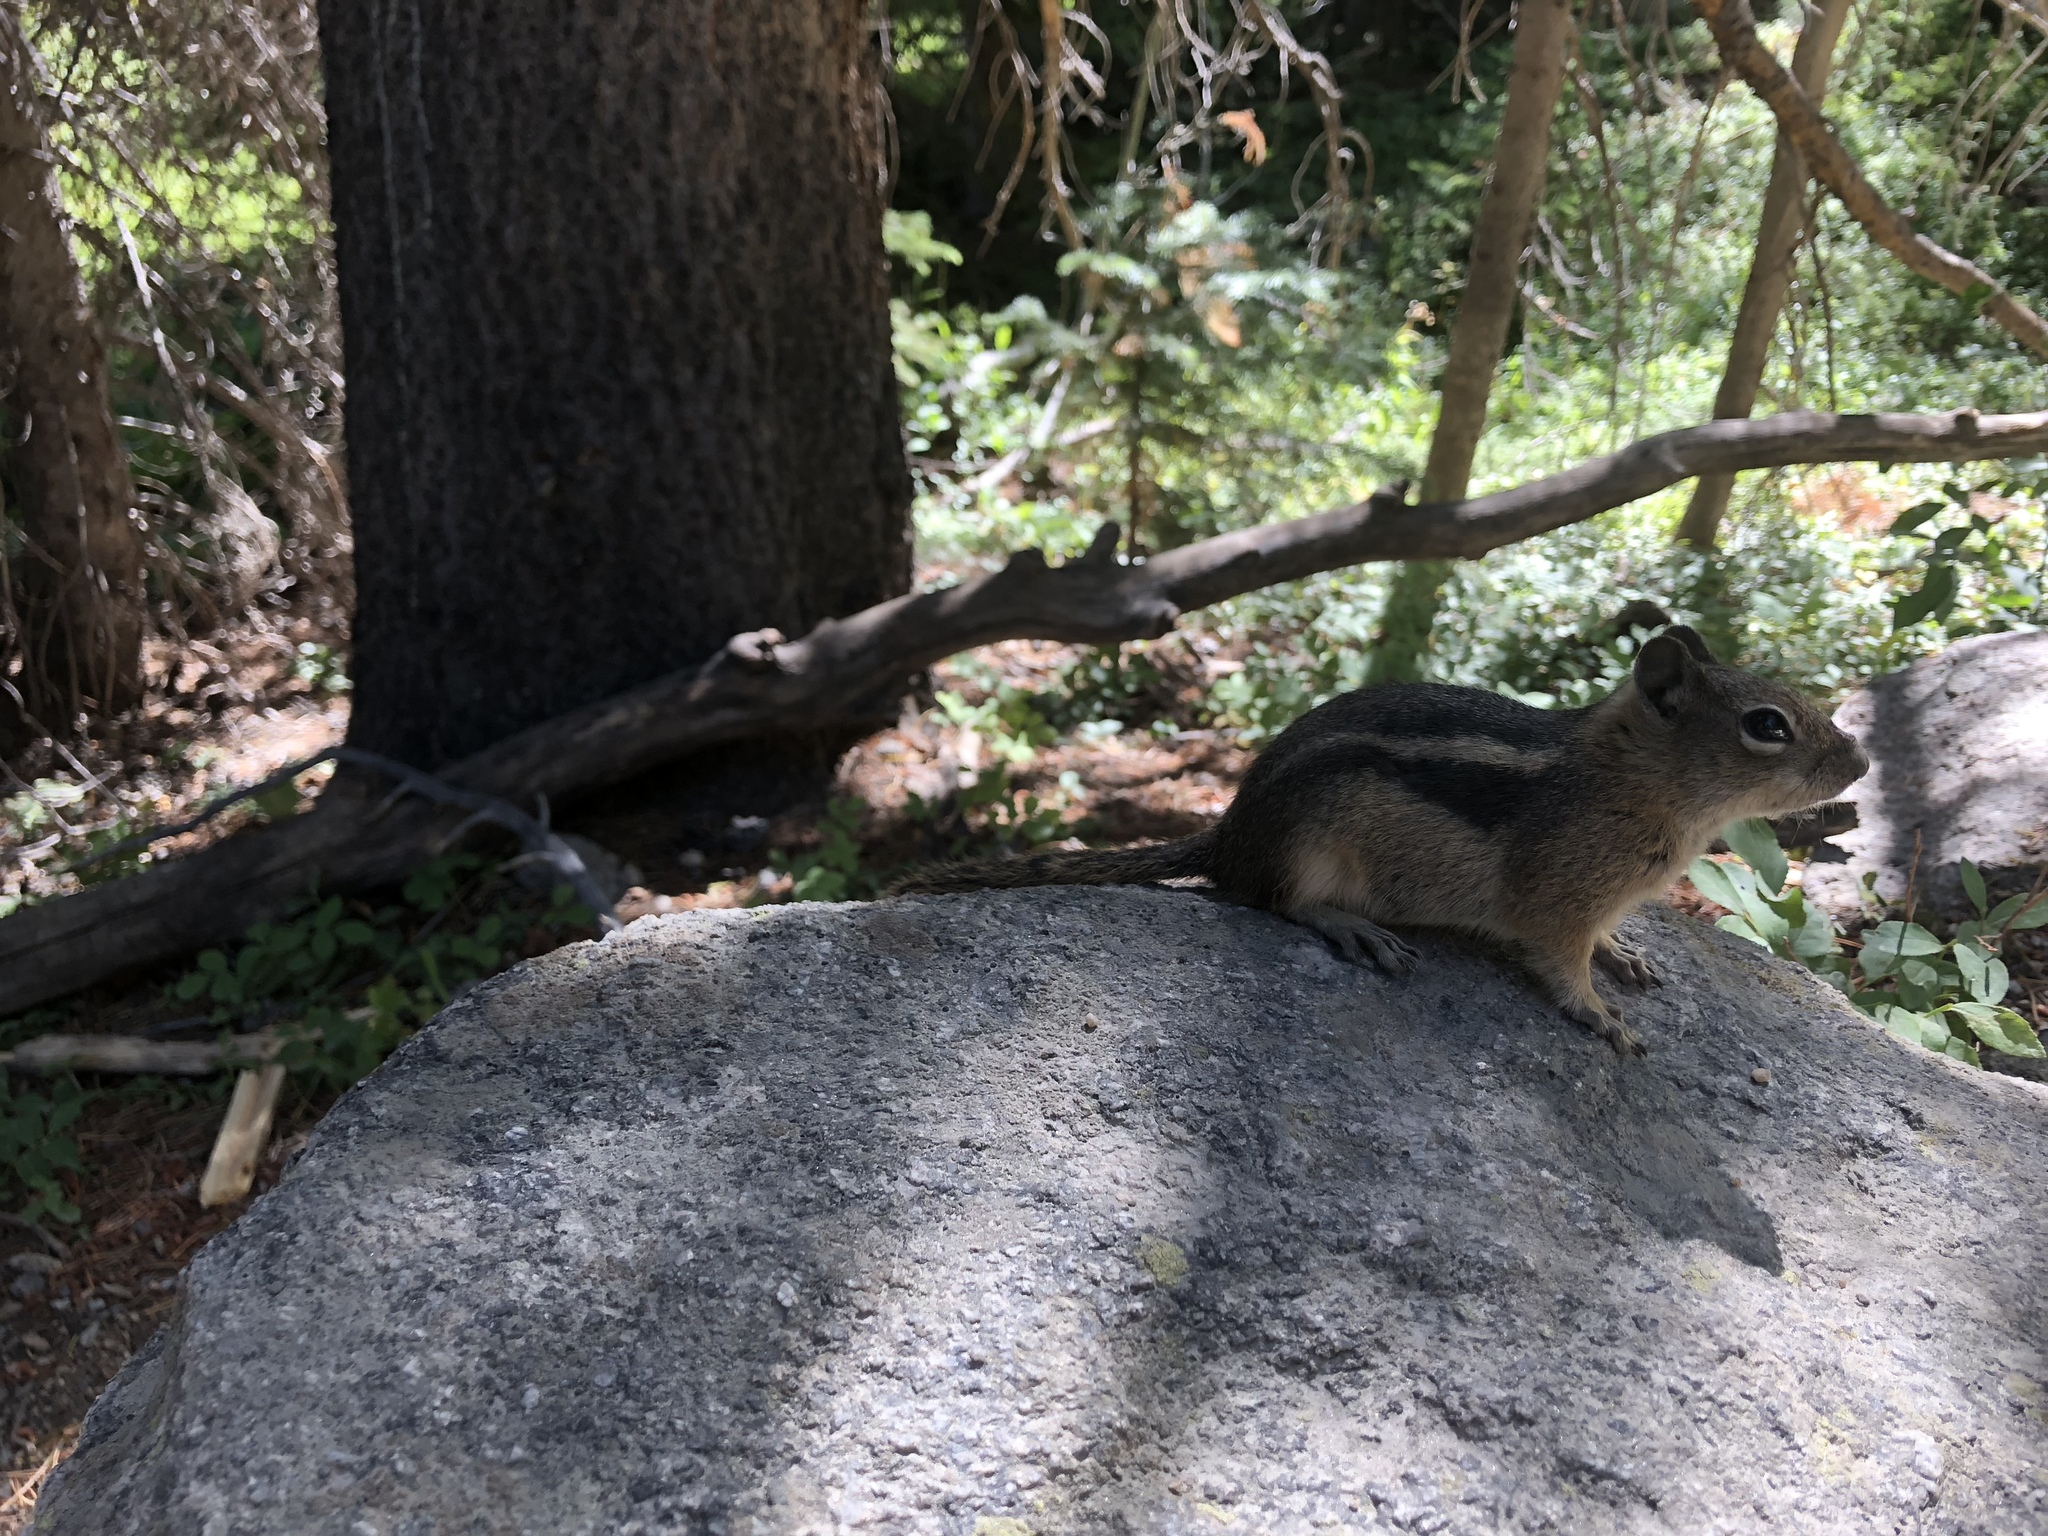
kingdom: Animalia
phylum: Chordata
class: Mammalia
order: Rodentia
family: Sciuridae
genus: Callospermophilus
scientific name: Callospermophilus lateralis
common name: Golden-mantled ground squirrel
